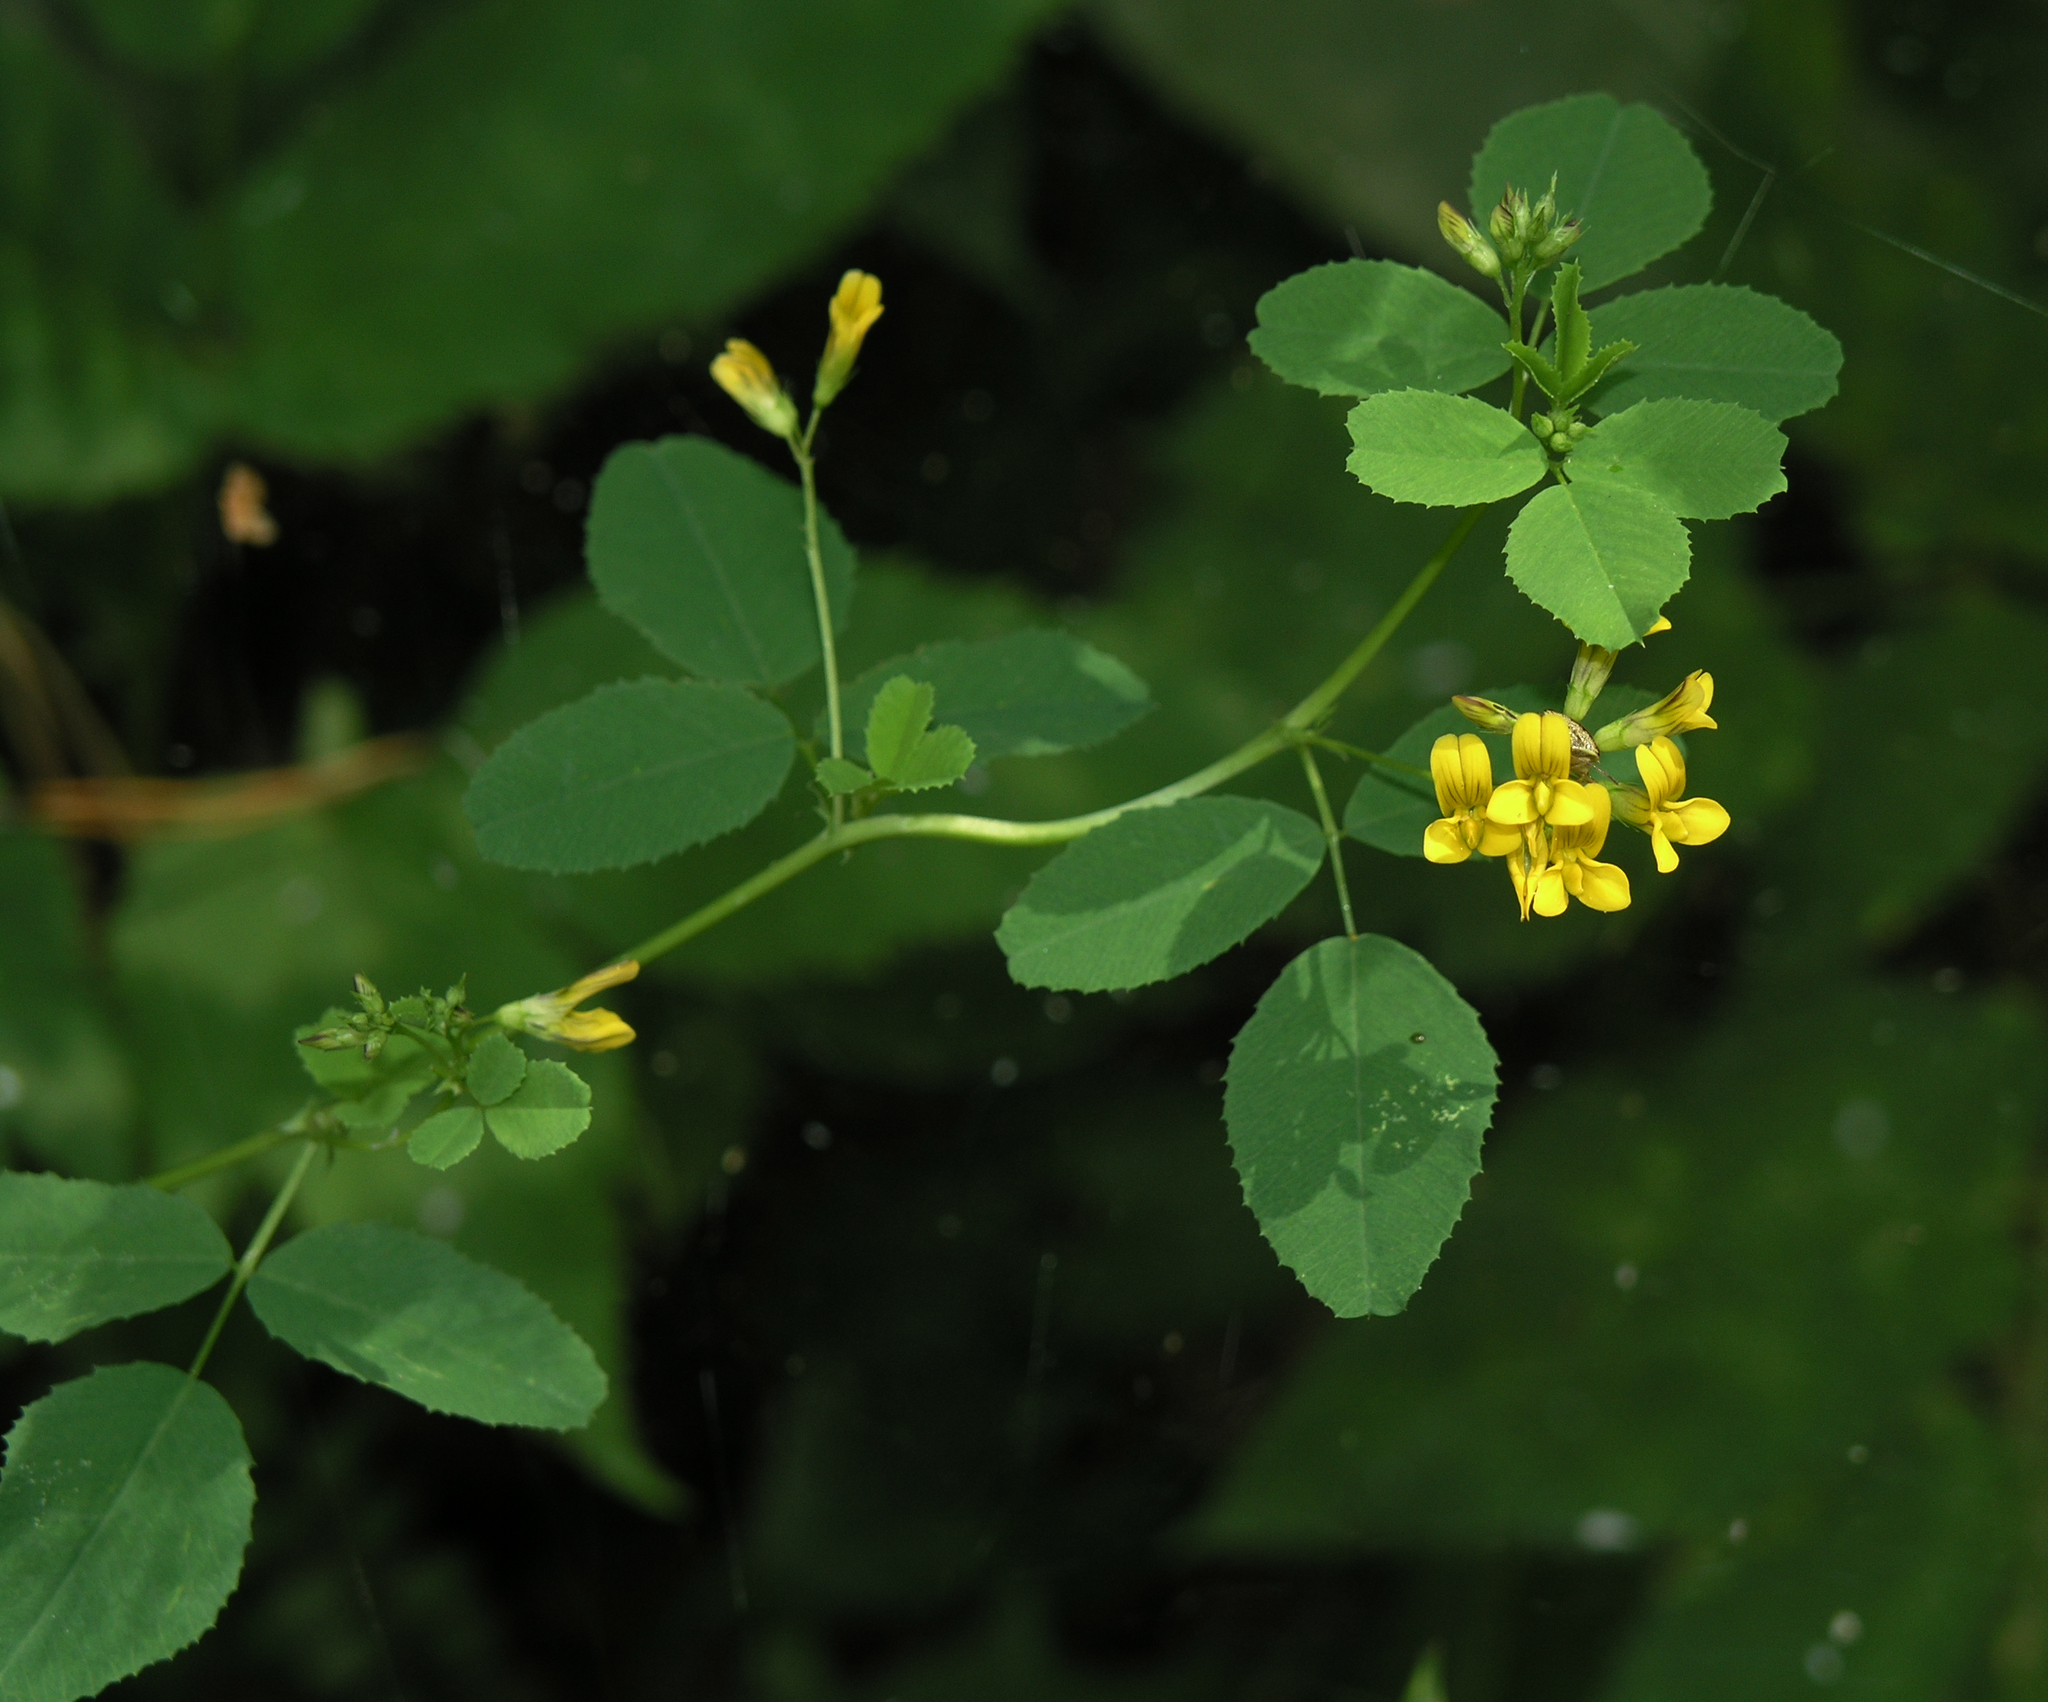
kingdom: Plantae
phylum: Tracheophyta
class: Magnoliopsida
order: Fabales
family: Fabaceae
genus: Medicago
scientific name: Medicago platycarpos
